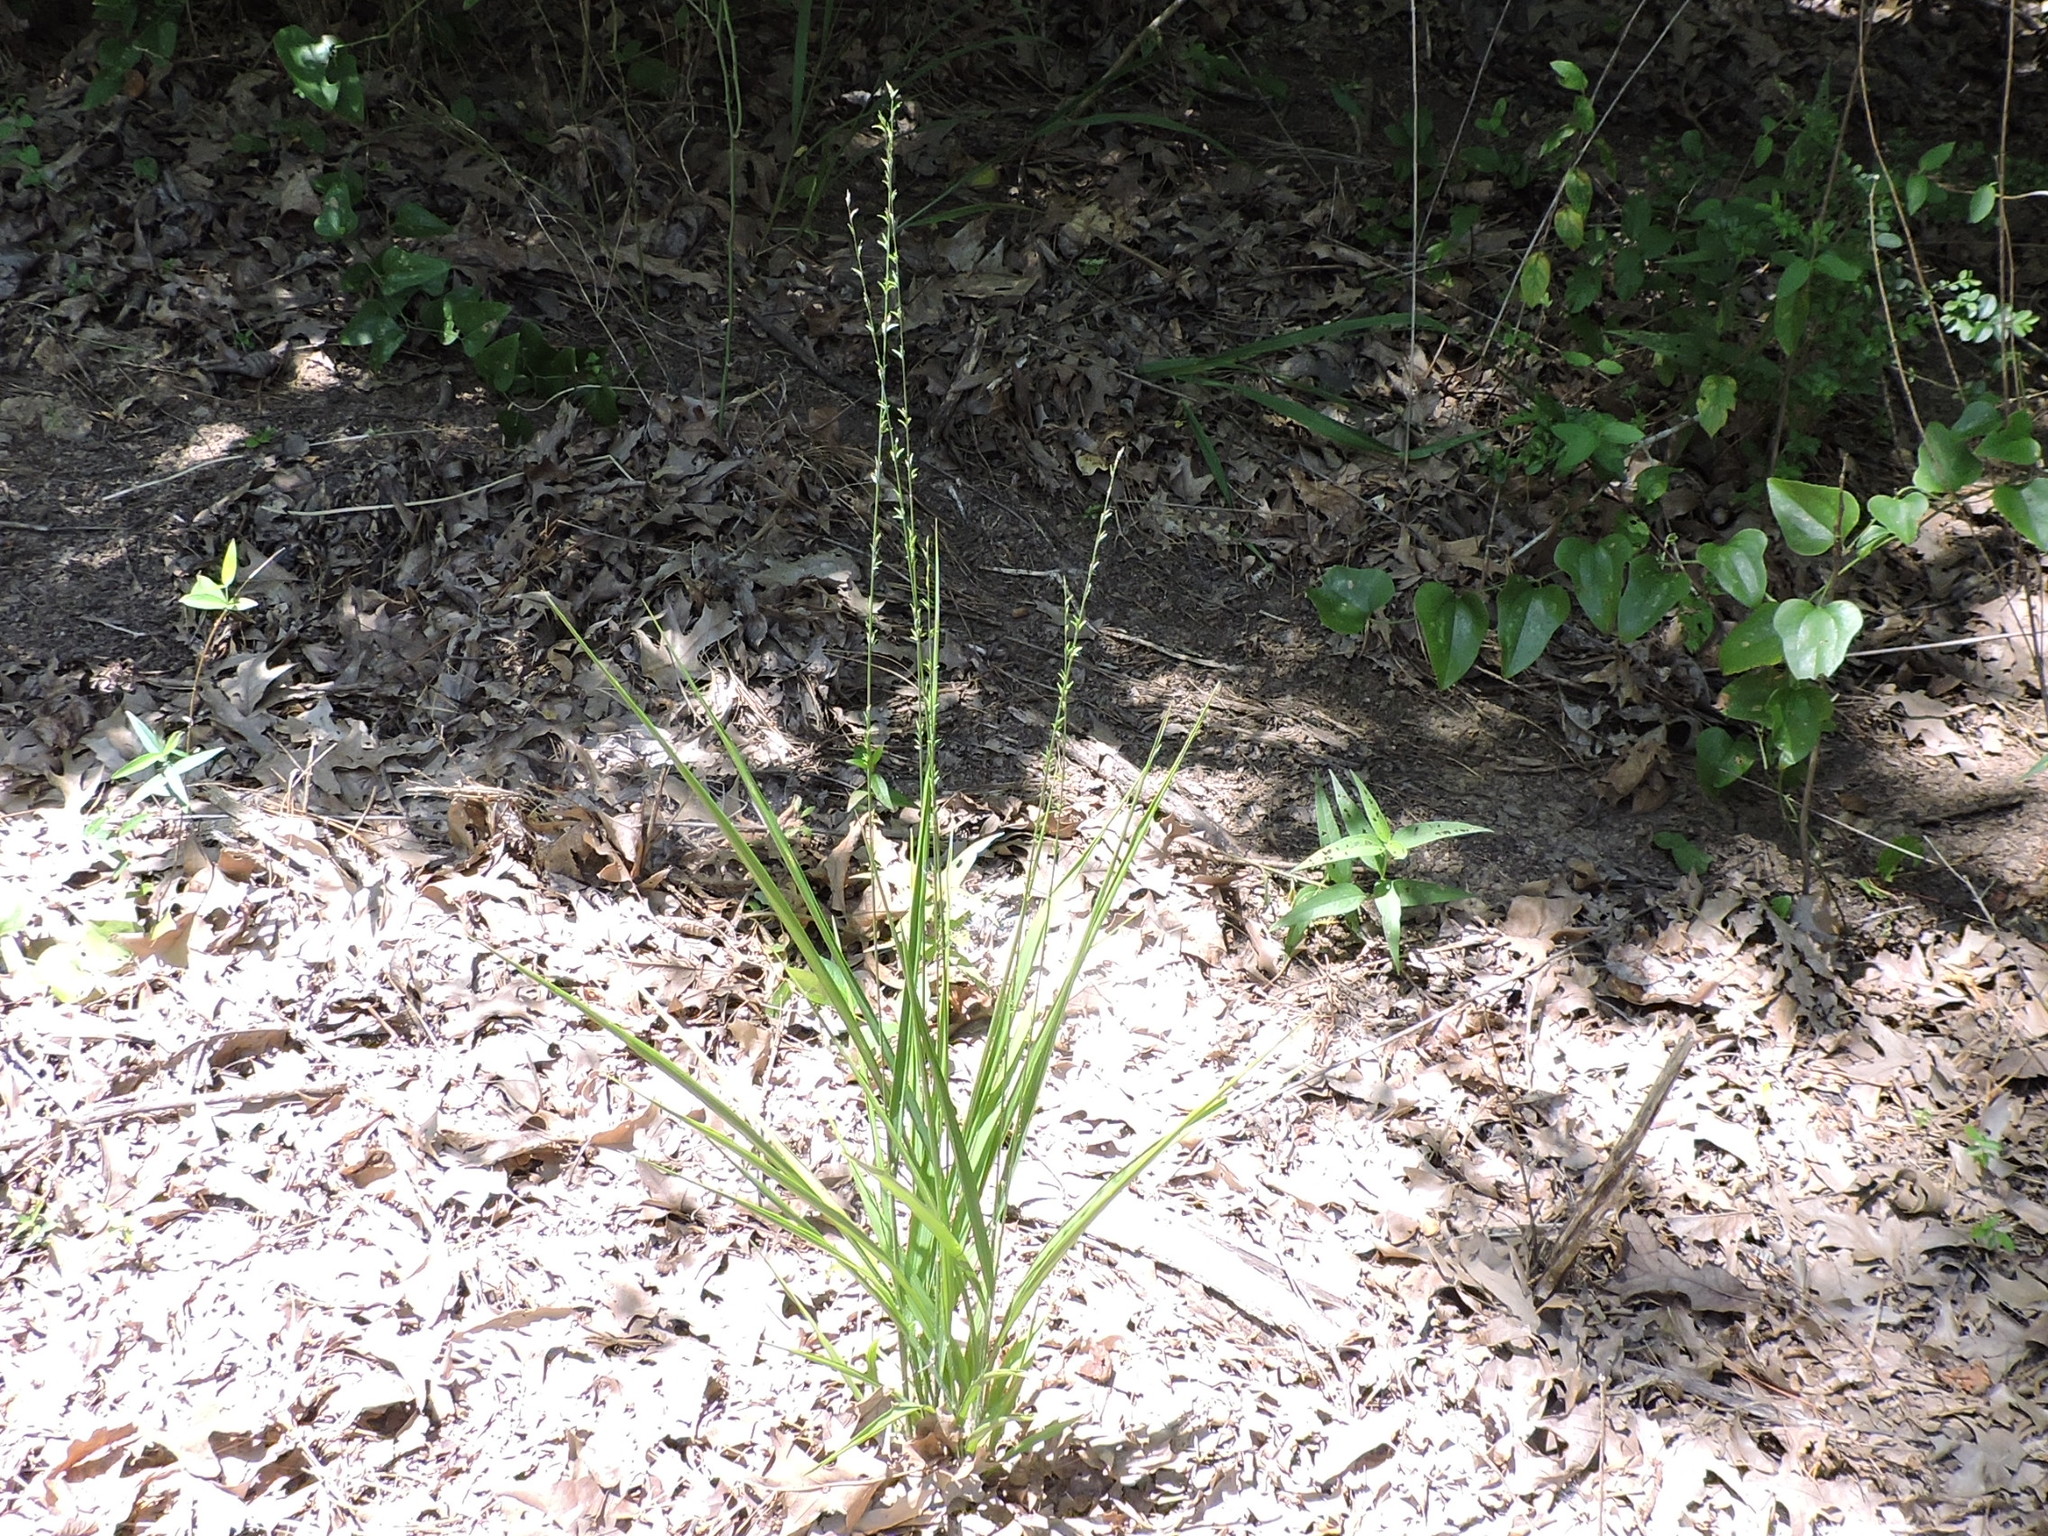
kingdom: Plantae
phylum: Tracheophyta
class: Liliopsida
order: Poales
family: Poaceae
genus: Chasmanthium
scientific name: Chasmanthium laxum
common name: Slender chasmanthium
